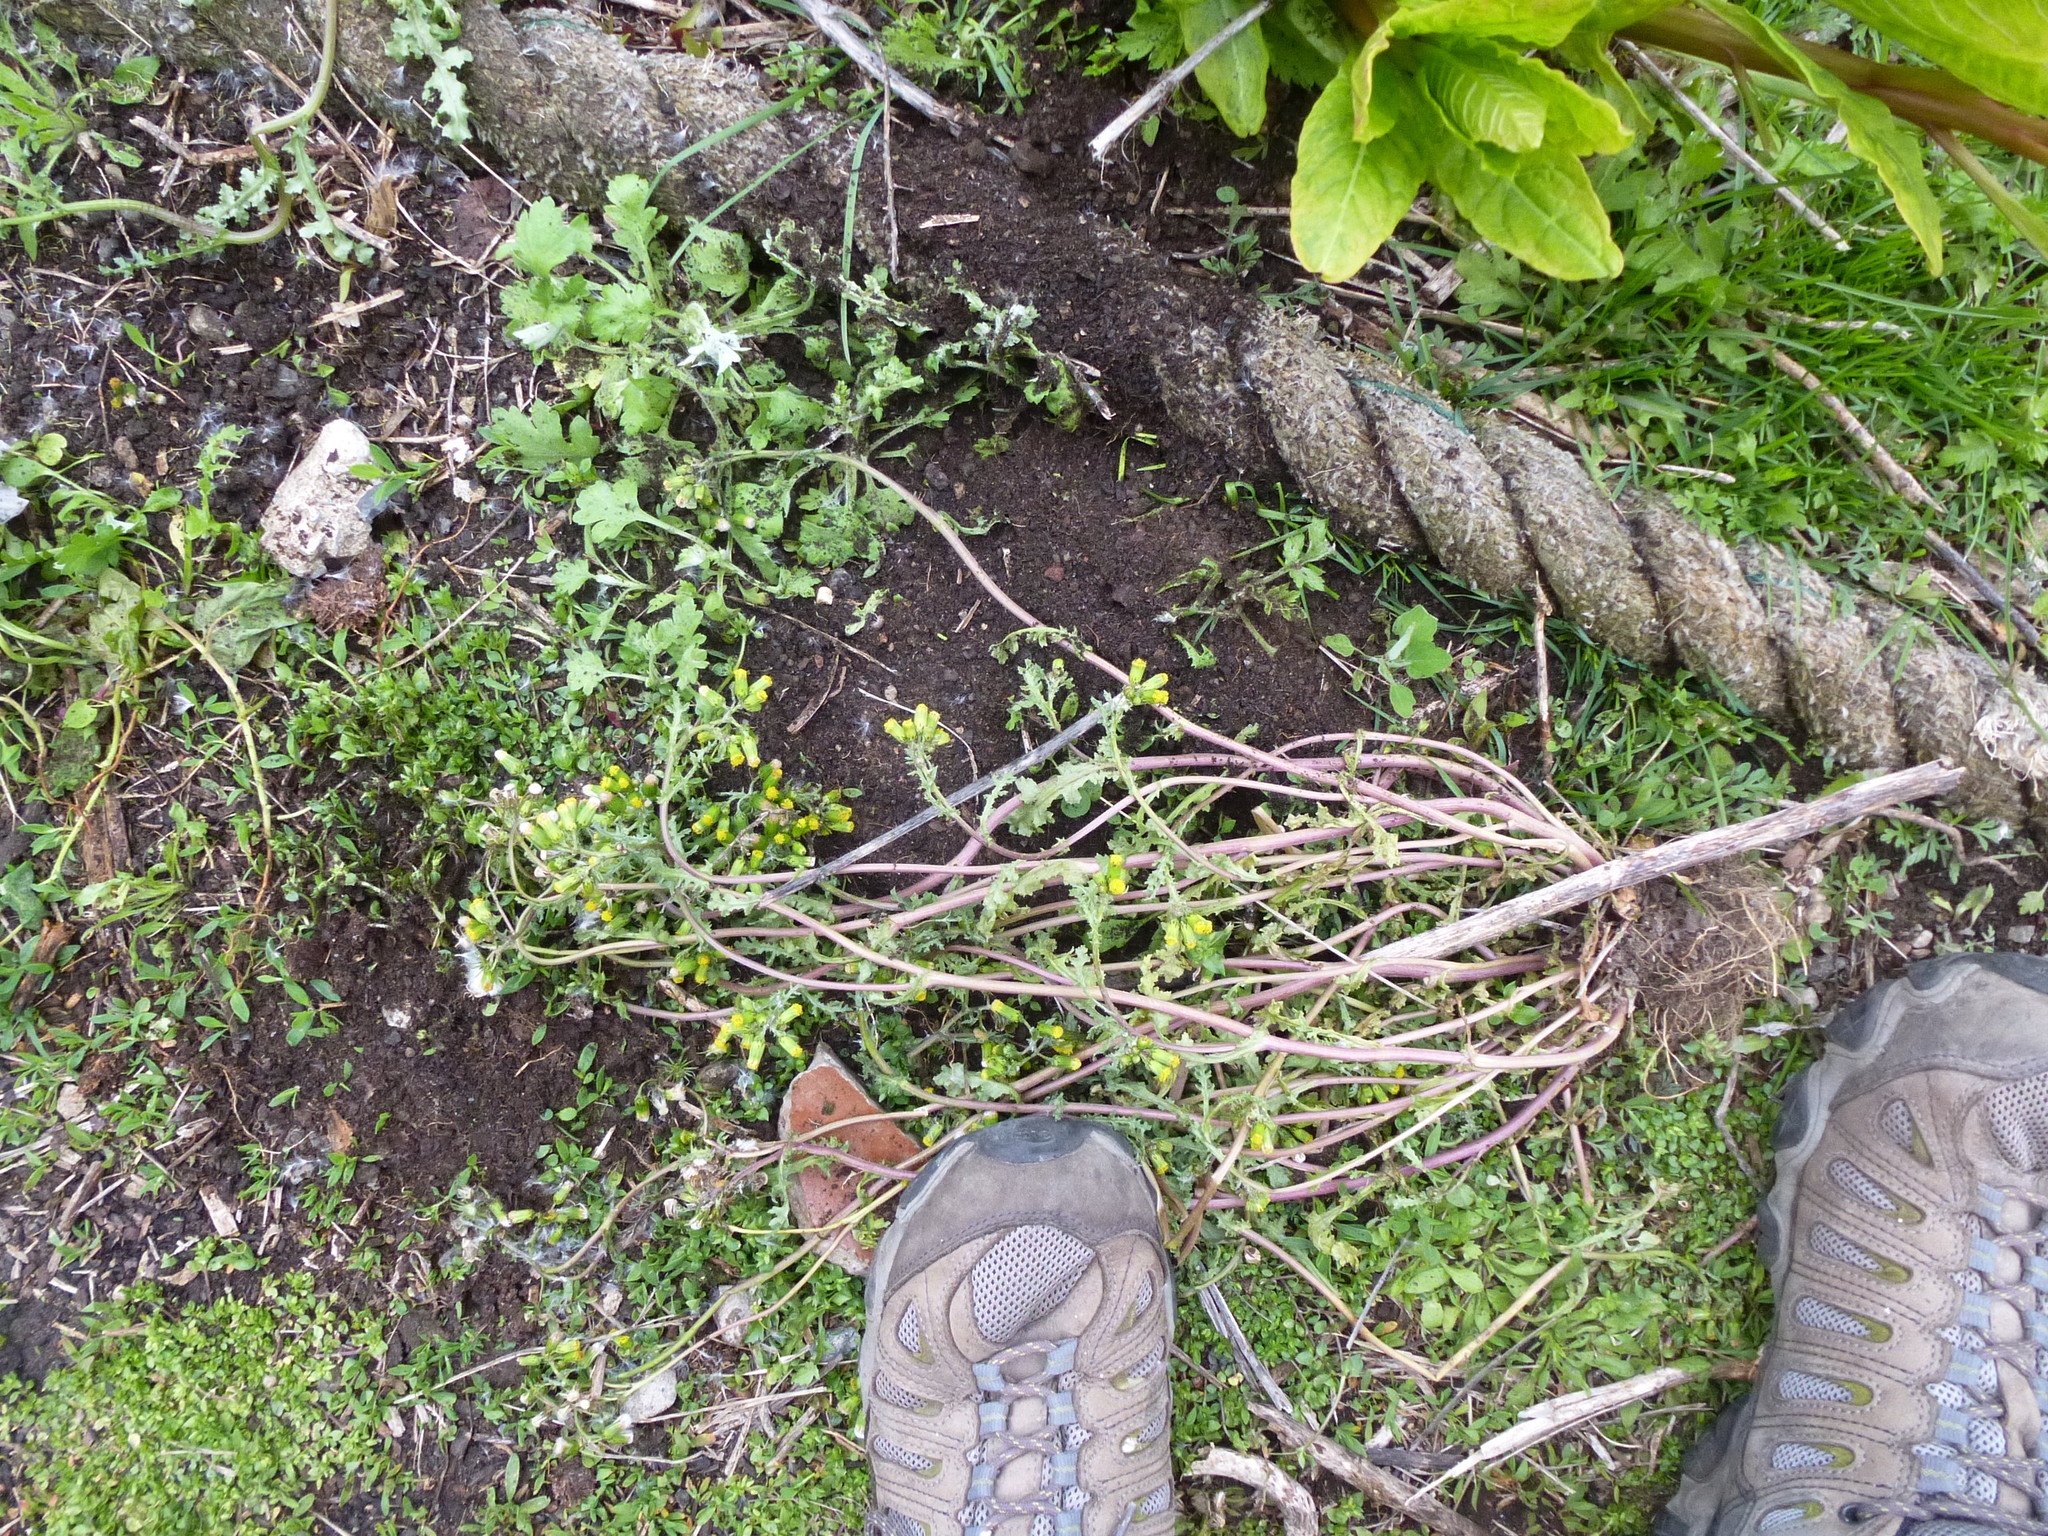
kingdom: Plantae
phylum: Tracheophyta
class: Magnoliopsida
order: Asterales
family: Asteraceae
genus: Senecio
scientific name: Senecio vulgaris
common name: Old-man-in-the-spring
